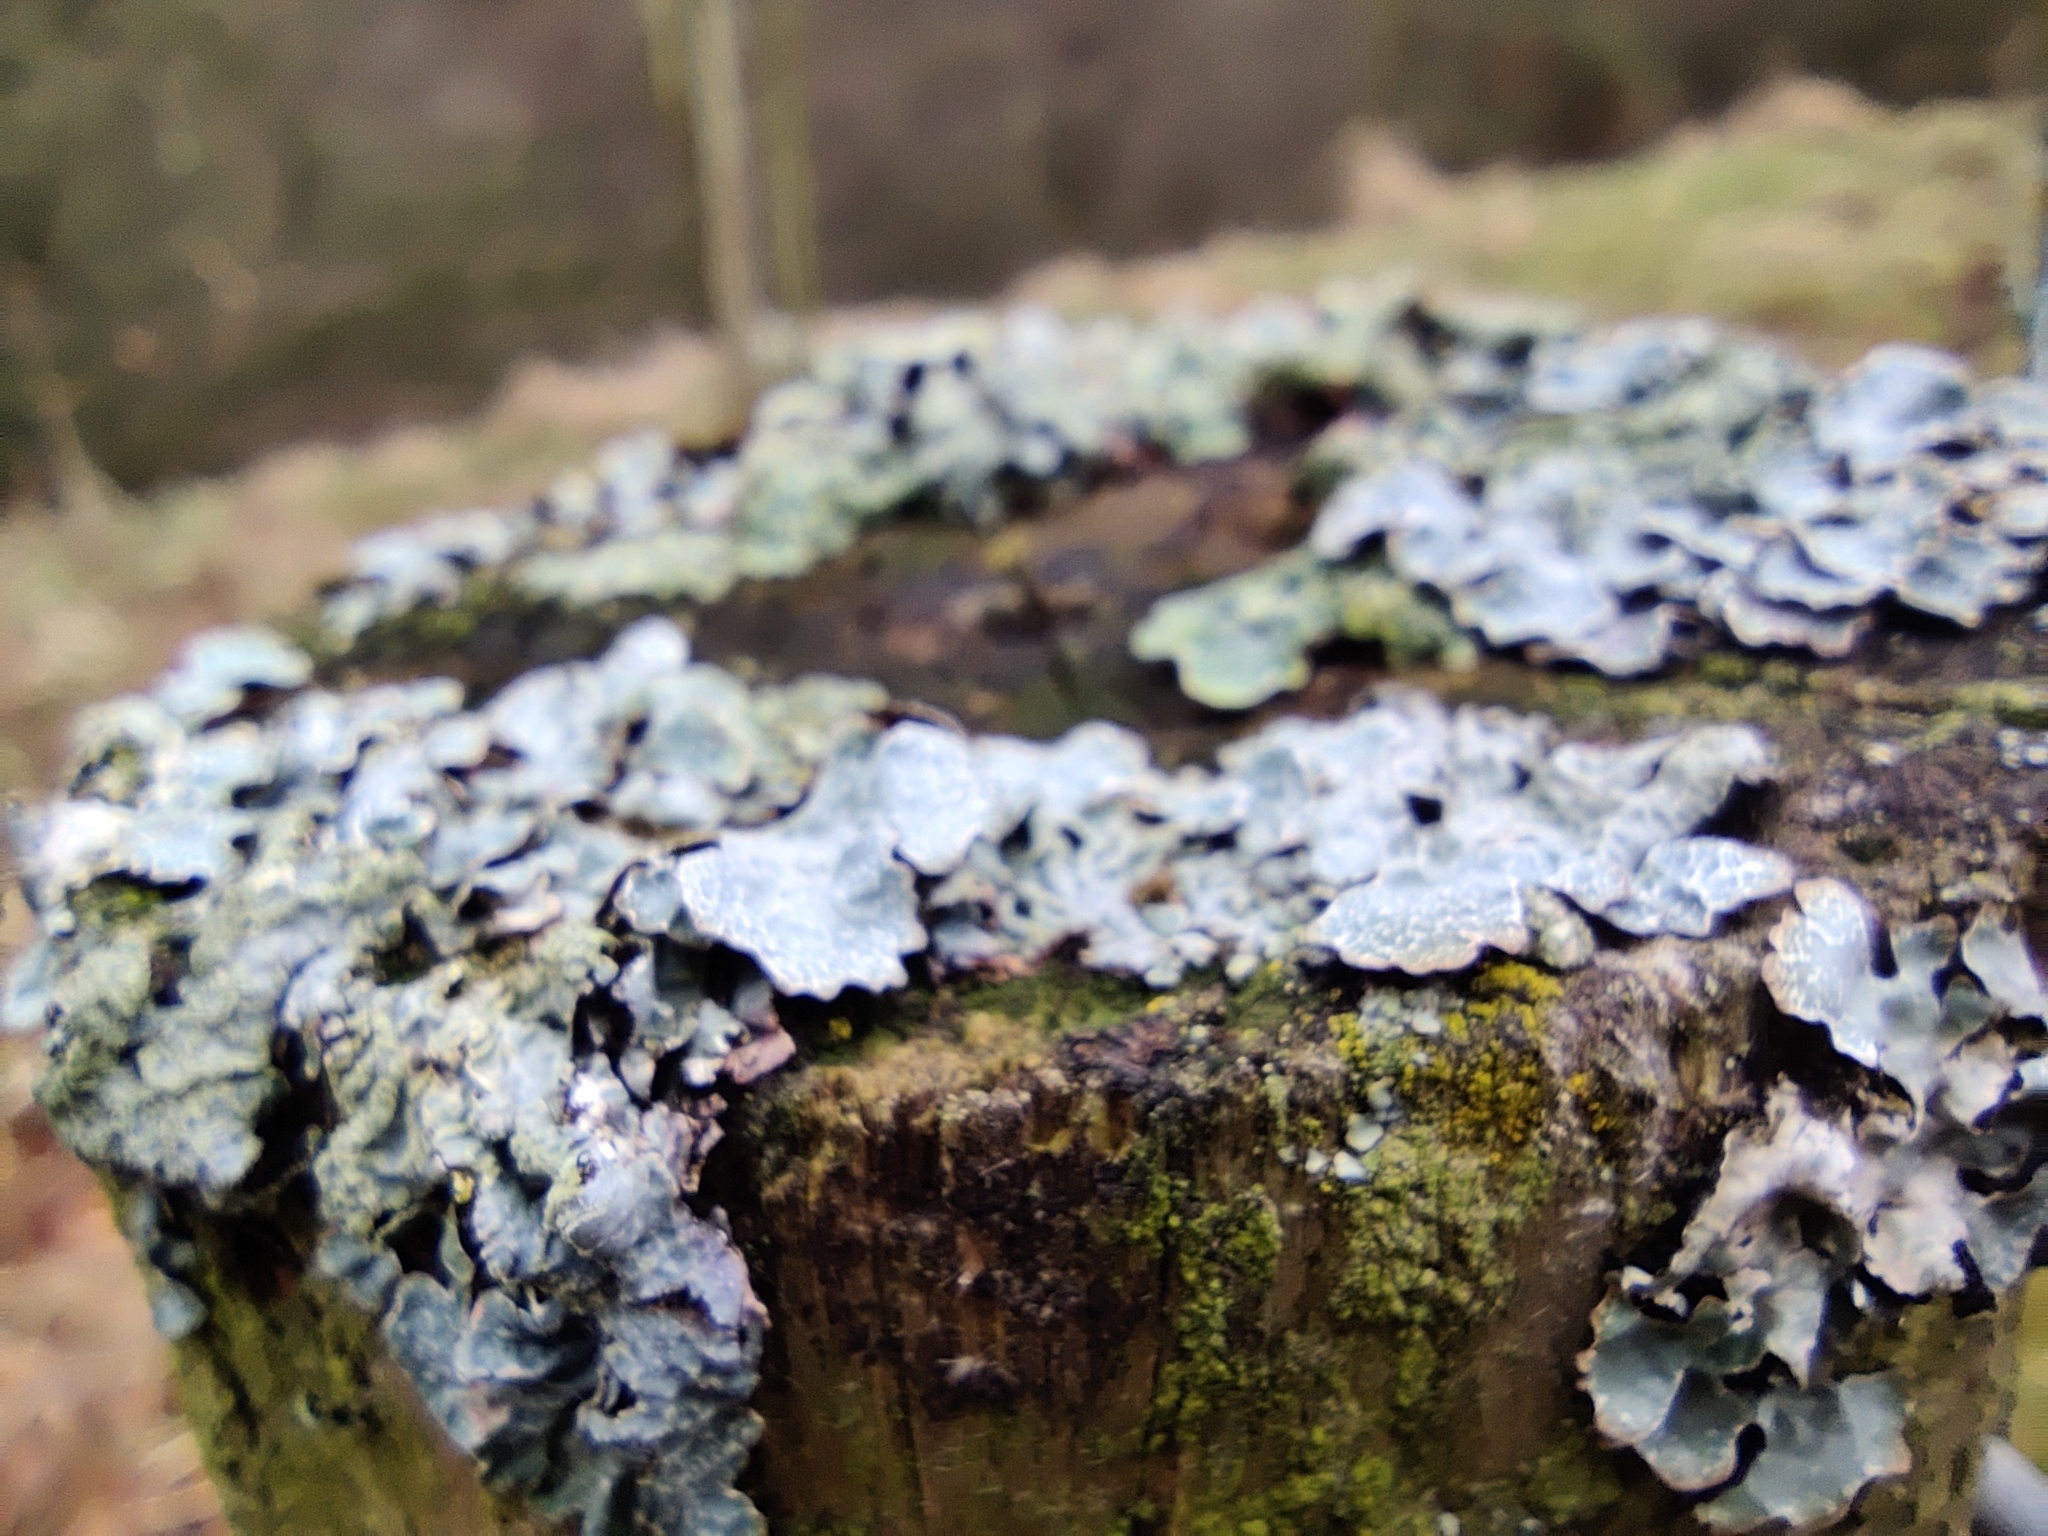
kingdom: Fungi
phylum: Ascomycota
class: Lecanoromycetes
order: Lecanorales
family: Parmeliaceae
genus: Parmelia
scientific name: Parmelia sulcata
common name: Netted shield lichen
